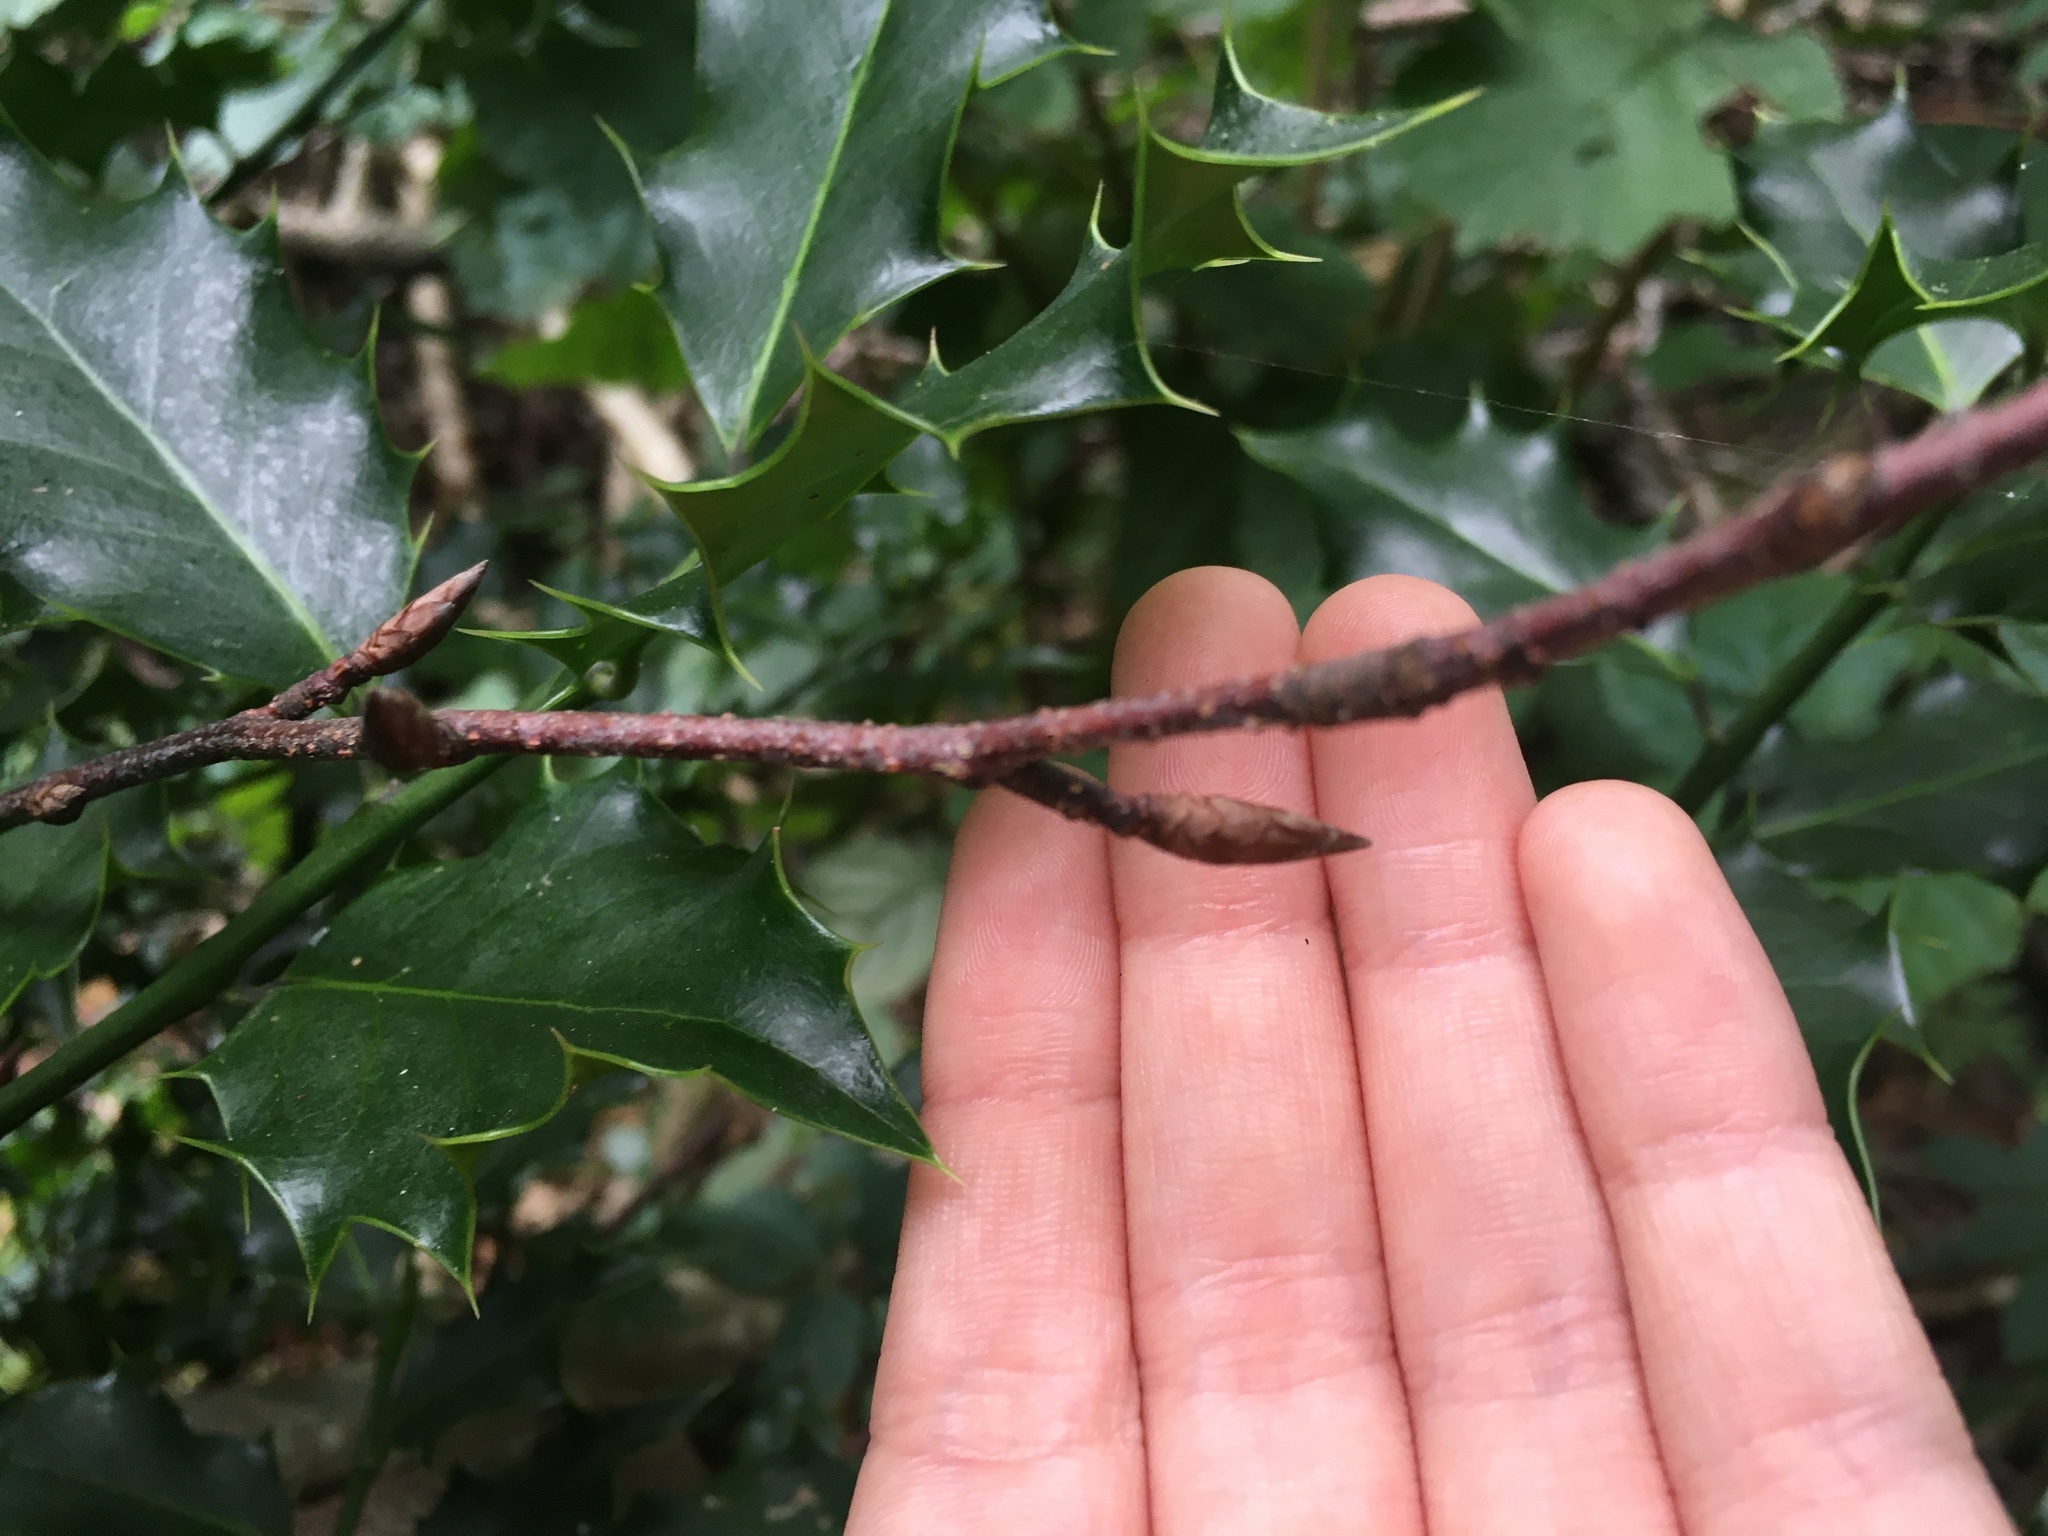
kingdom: Plantae
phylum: Tracheophyta
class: Magnoliopsida
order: Aquifoliales
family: Aquifoliaceae
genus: Ilex
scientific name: Ilex aquifolium
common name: English holly
